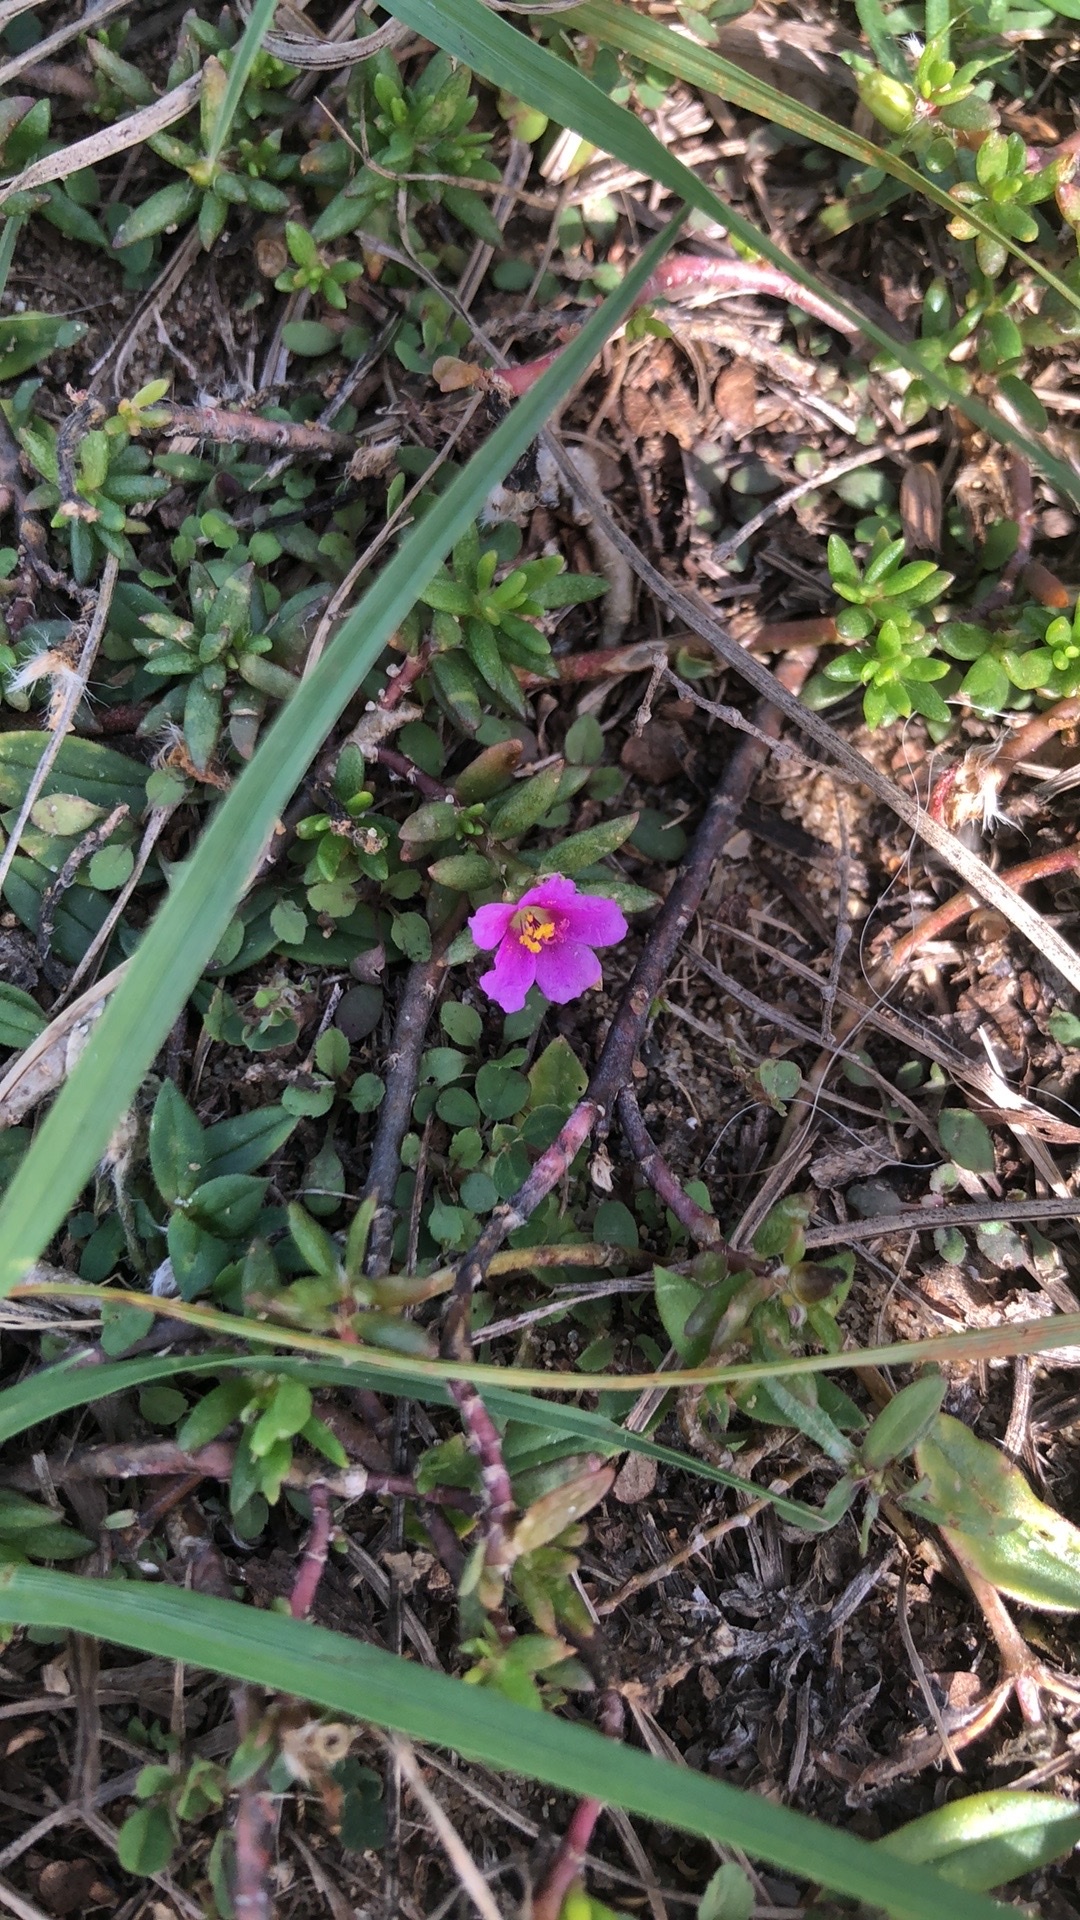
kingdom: Plantae
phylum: Tracheophyta
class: Magnoliopsida
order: Caryophyllales
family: Portulacaceae
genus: Portulaca
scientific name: Portulaca pilosa
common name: Kiss me quick
